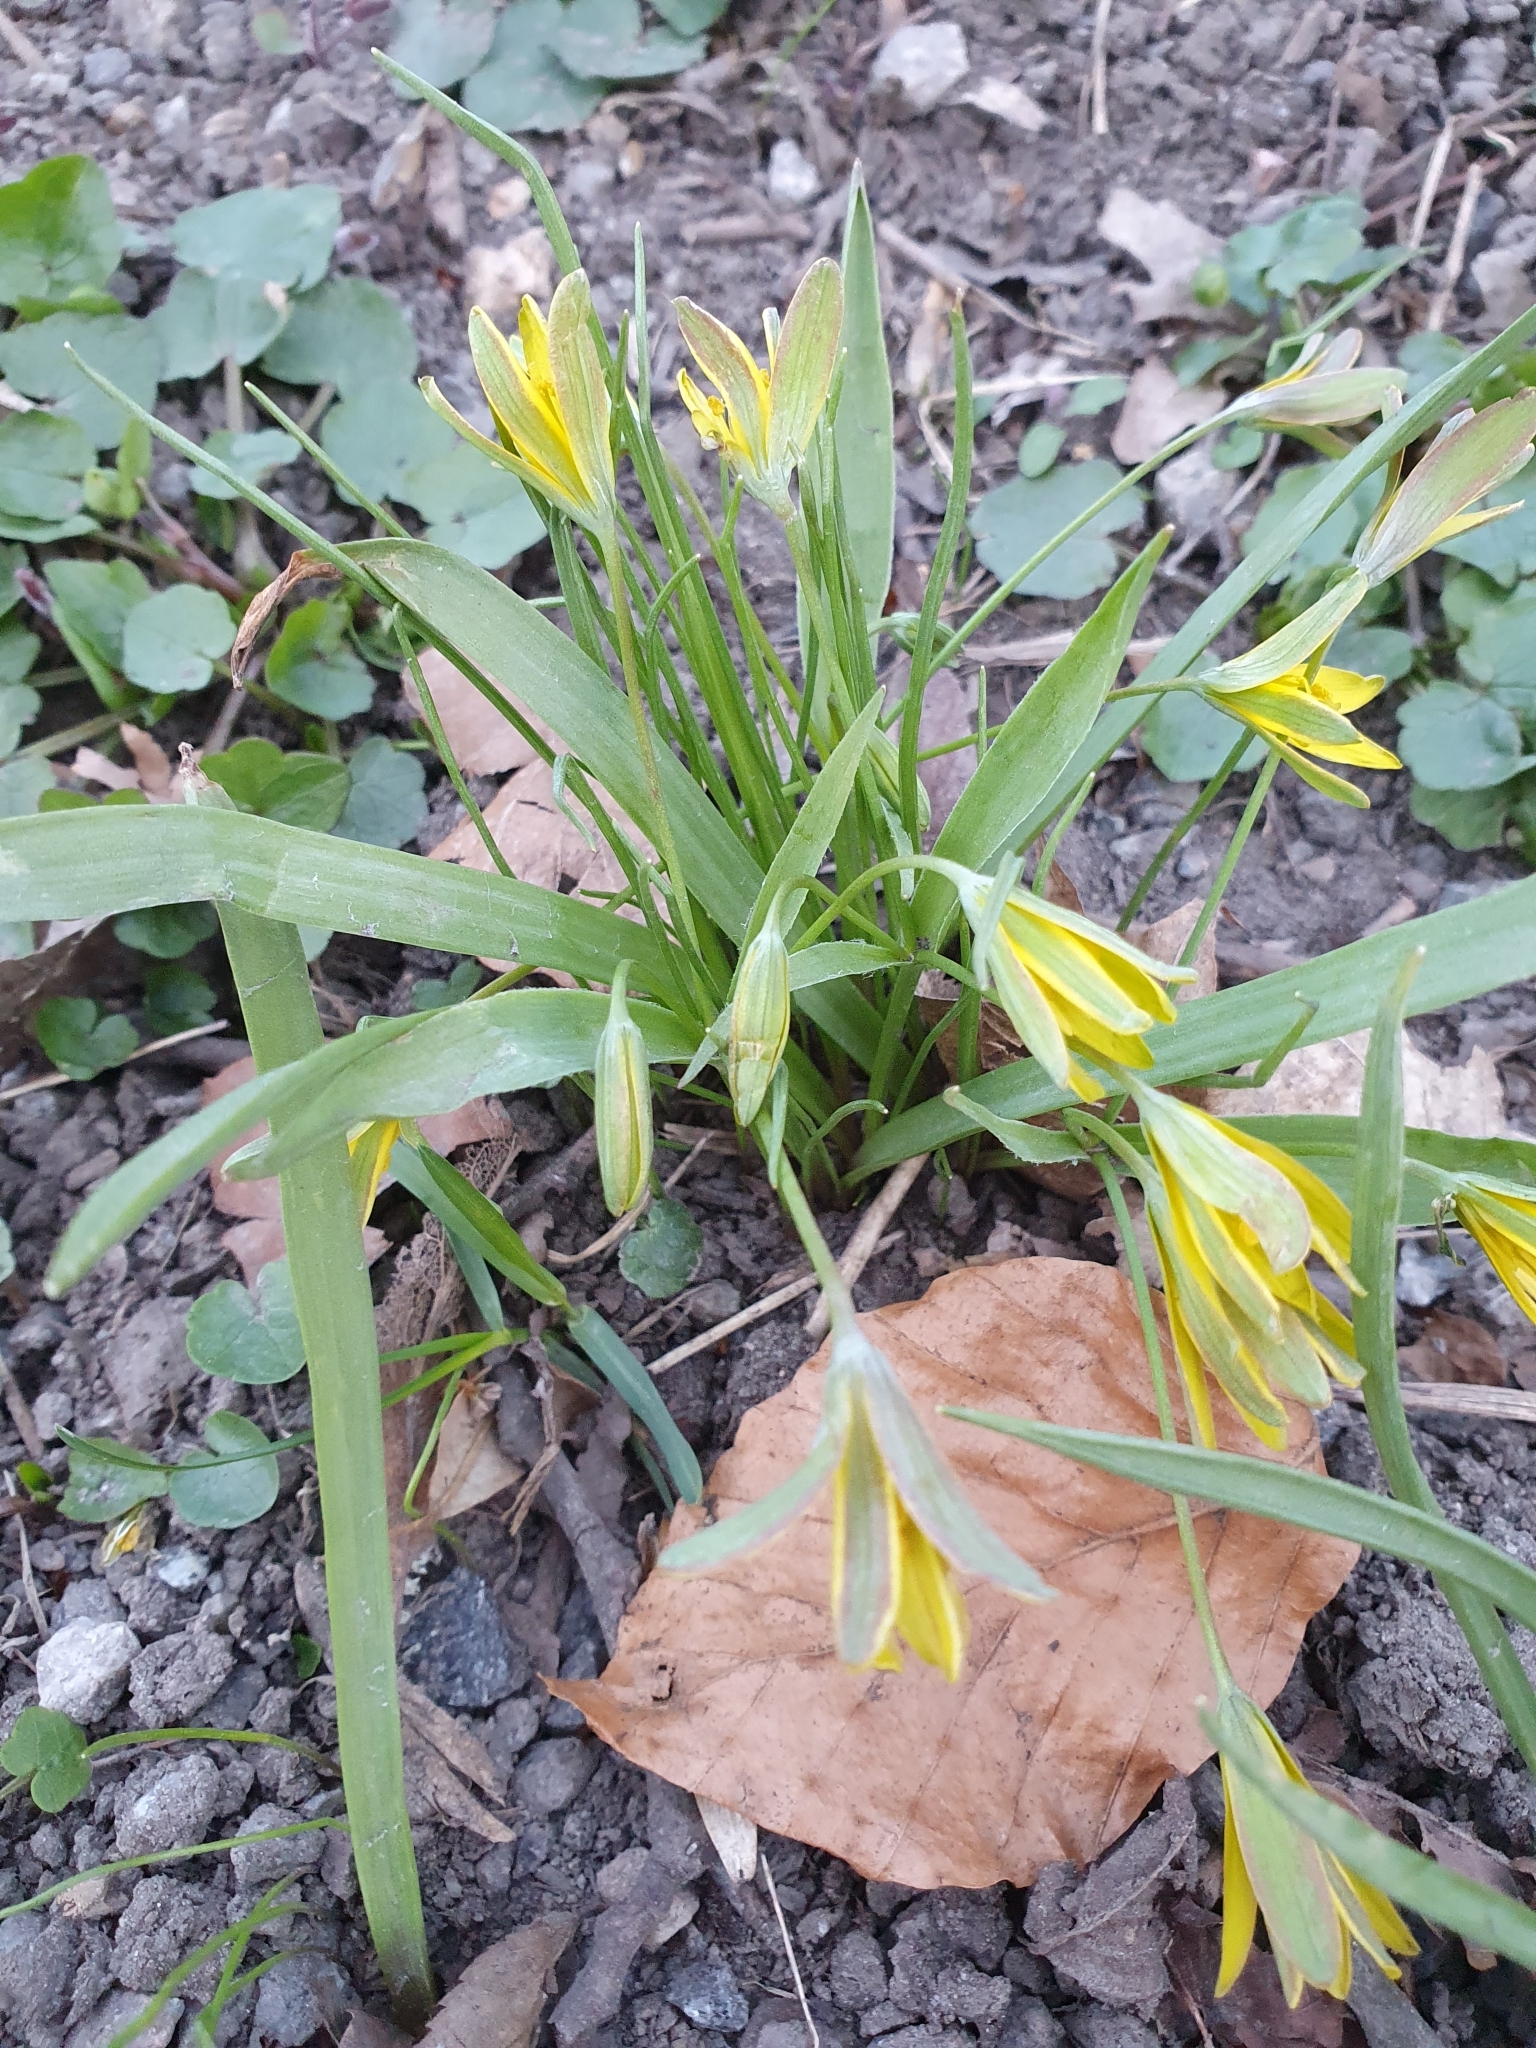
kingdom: Plantae
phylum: Tracheophyta
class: Liliopsida
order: Liliales
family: Liliaceae
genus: Gagea
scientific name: Gagea lutea
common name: Yellow star-of-bethlehem
